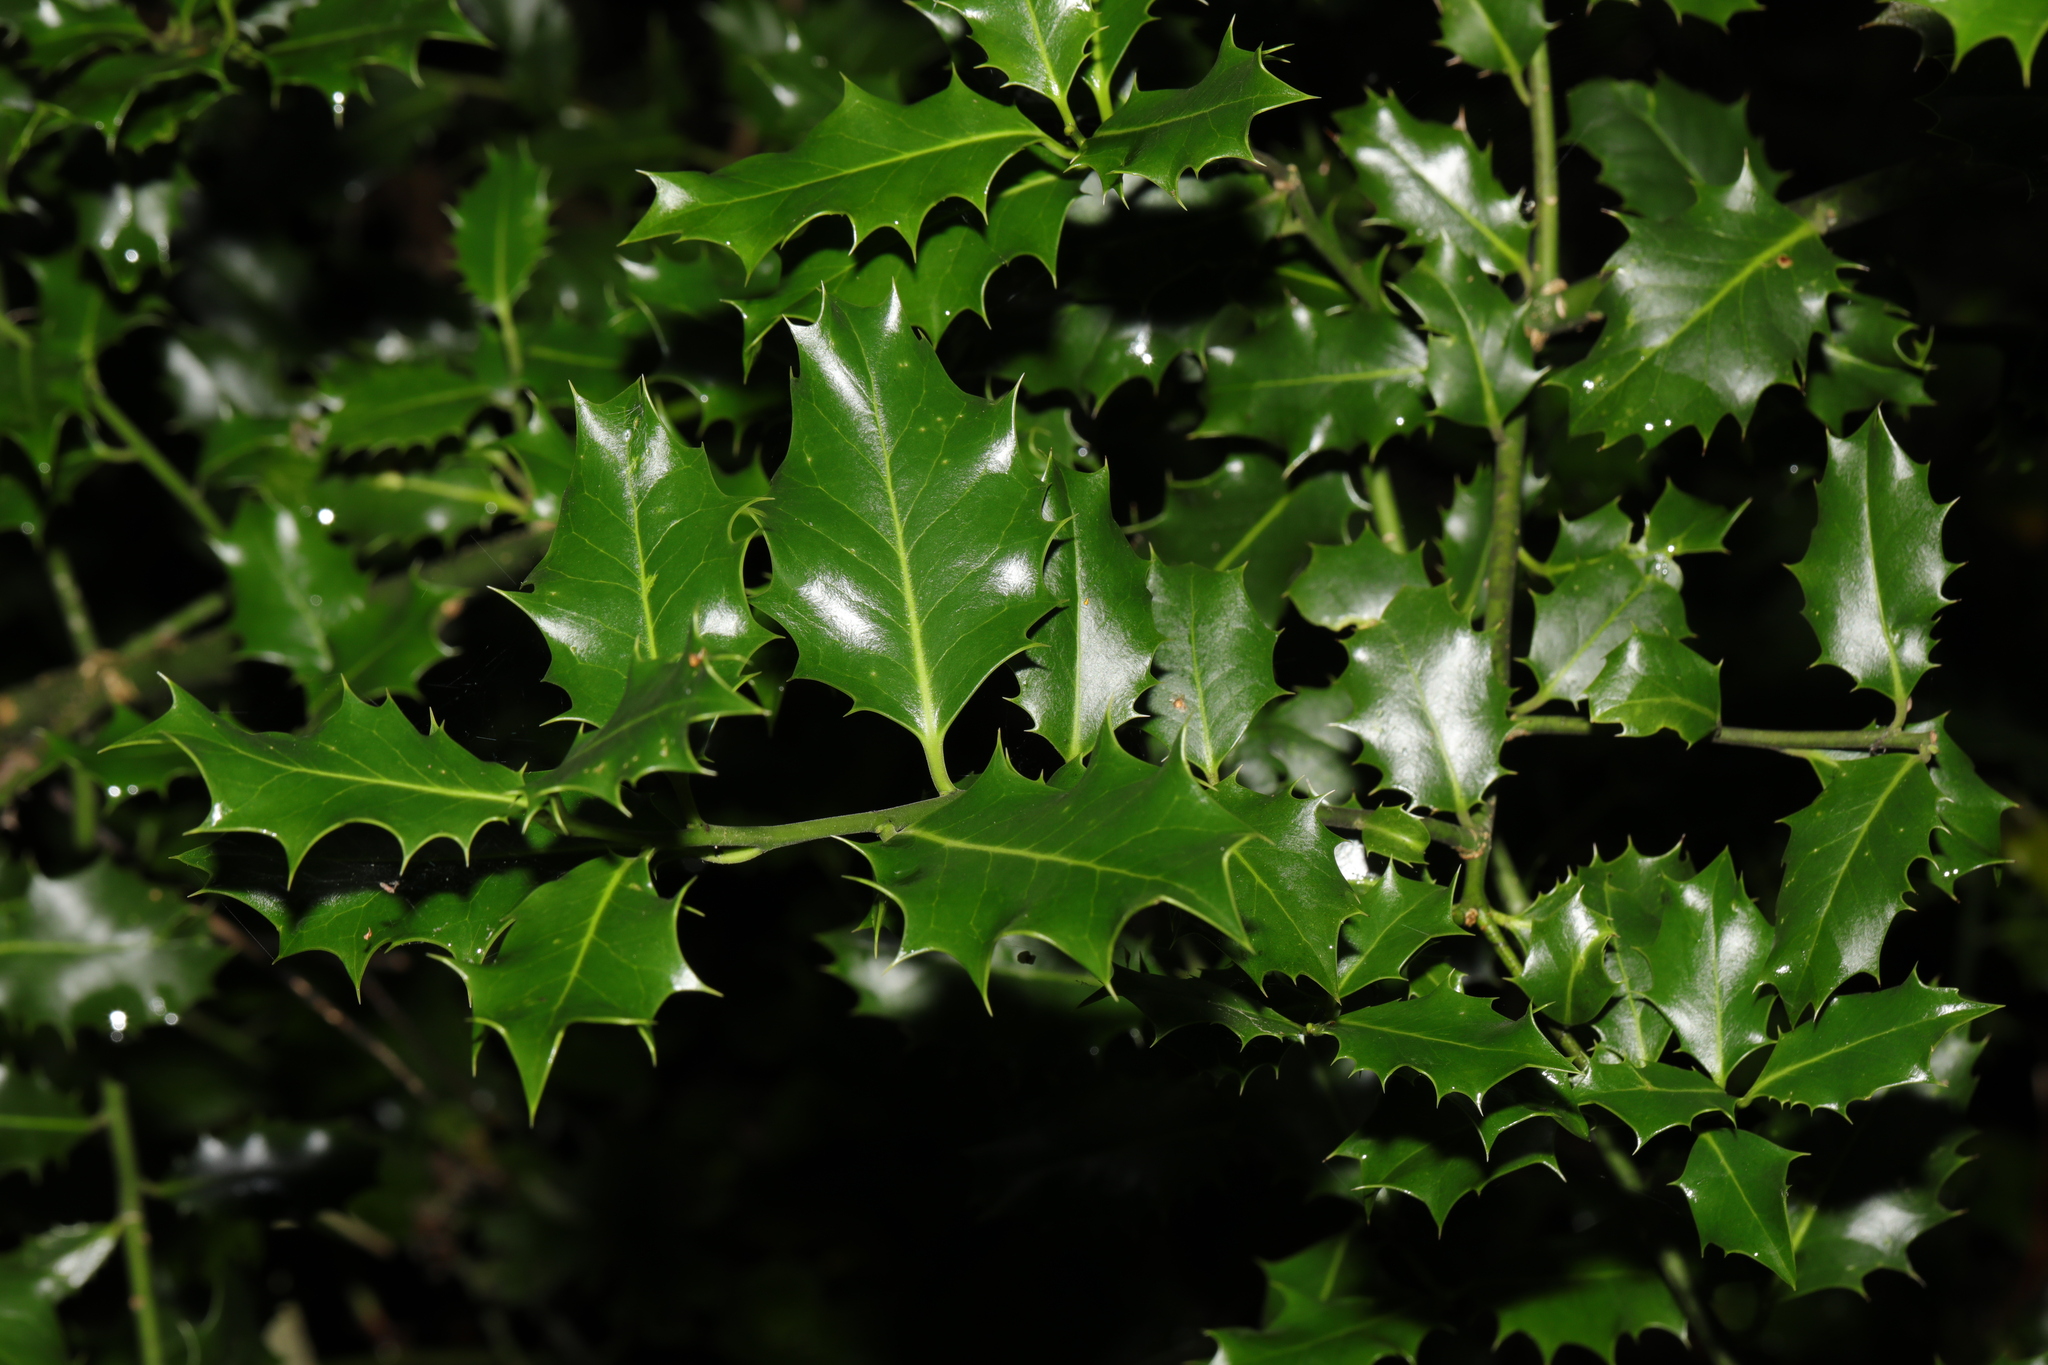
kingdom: Plantae
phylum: Tracheophyta
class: Magnoliopsida
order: Aquifoliales
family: Aquifoliaceae
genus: Ilex
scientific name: Ilex aquifolium
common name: English holly
